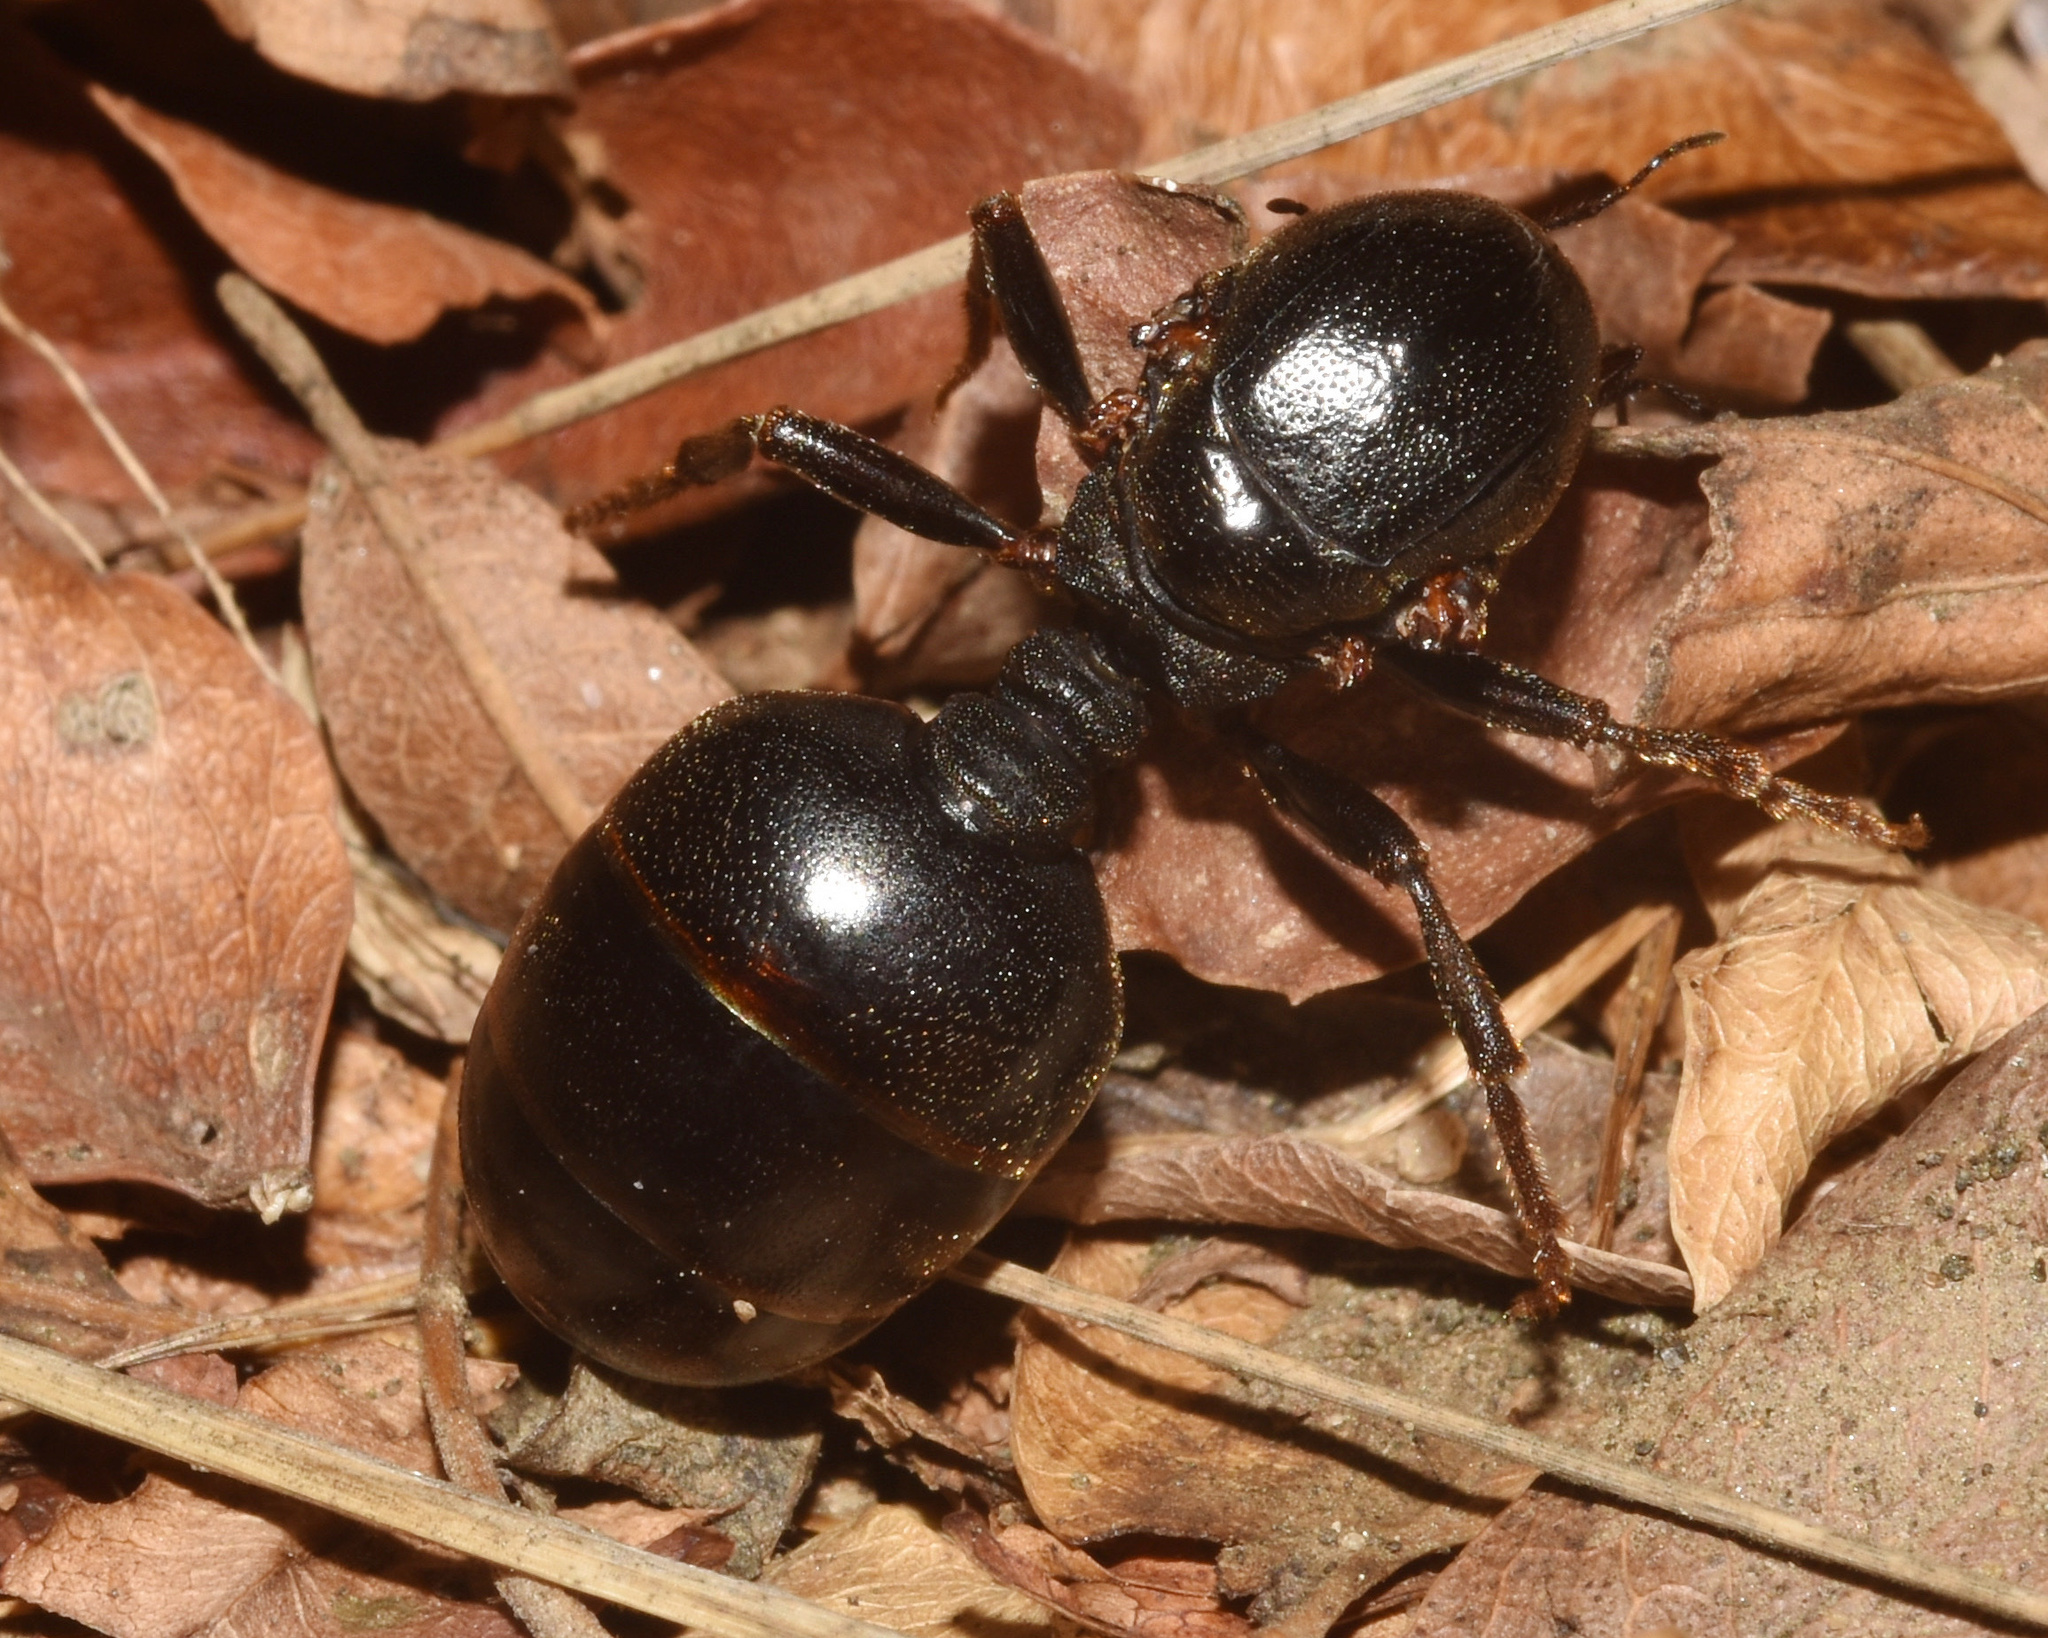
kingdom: Animalia
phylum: Arthropoda
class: Insecta
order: Hymenoptera
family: Formicidae
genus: Carebara
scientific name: Carebara vidua
